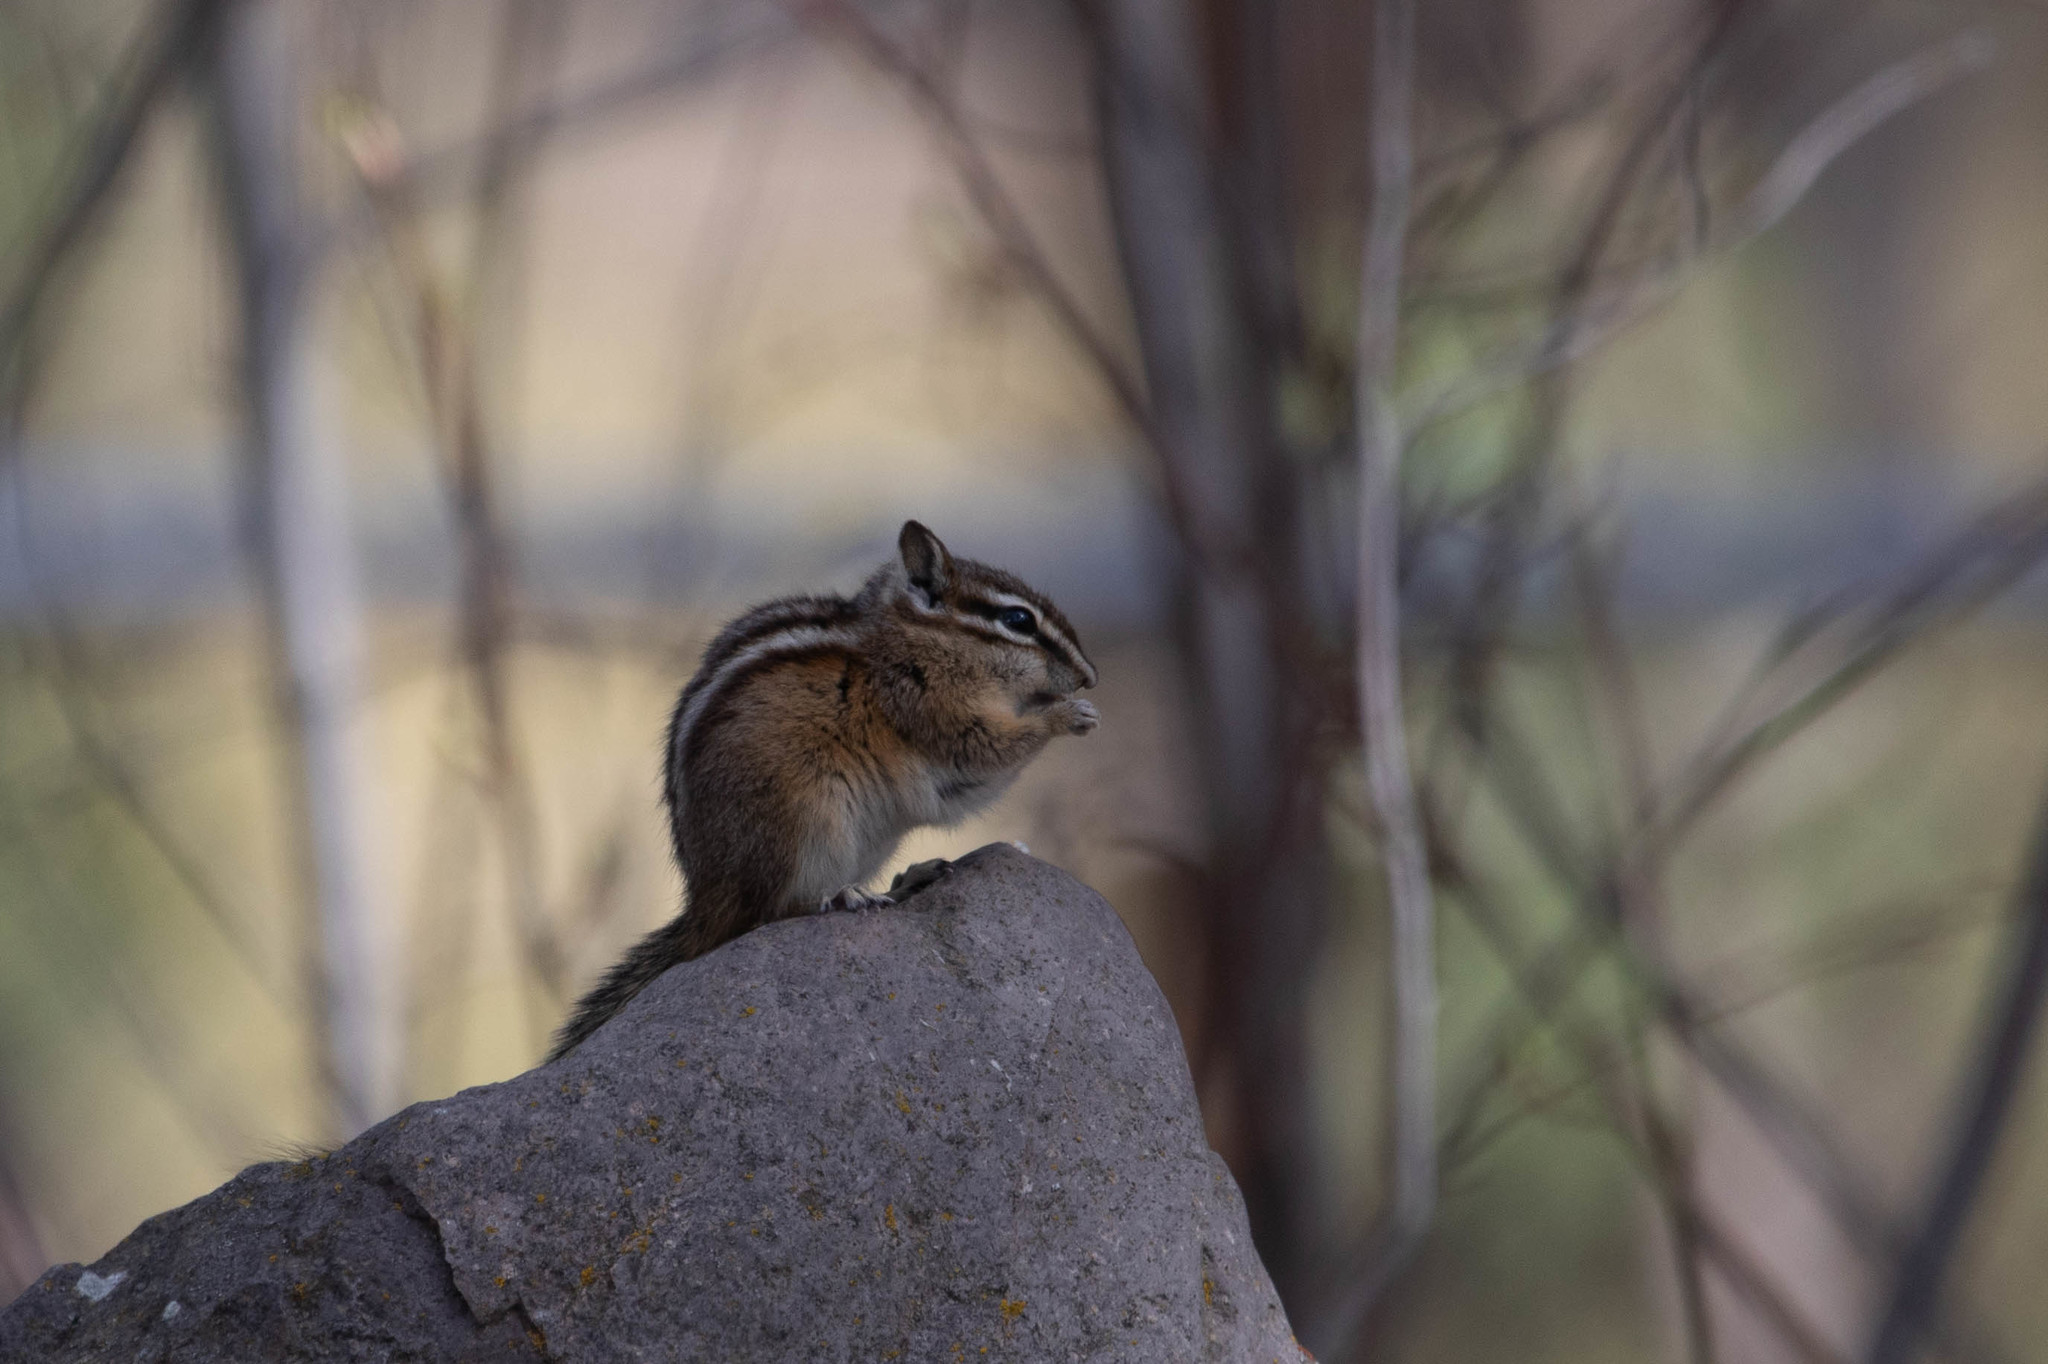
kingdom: Animalia
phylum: Chordata
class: Mammalia
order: Rodentia
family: Sciuridae
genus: Tamias
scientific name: Tamias amoenus
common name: Yellow-pine chipmunk
